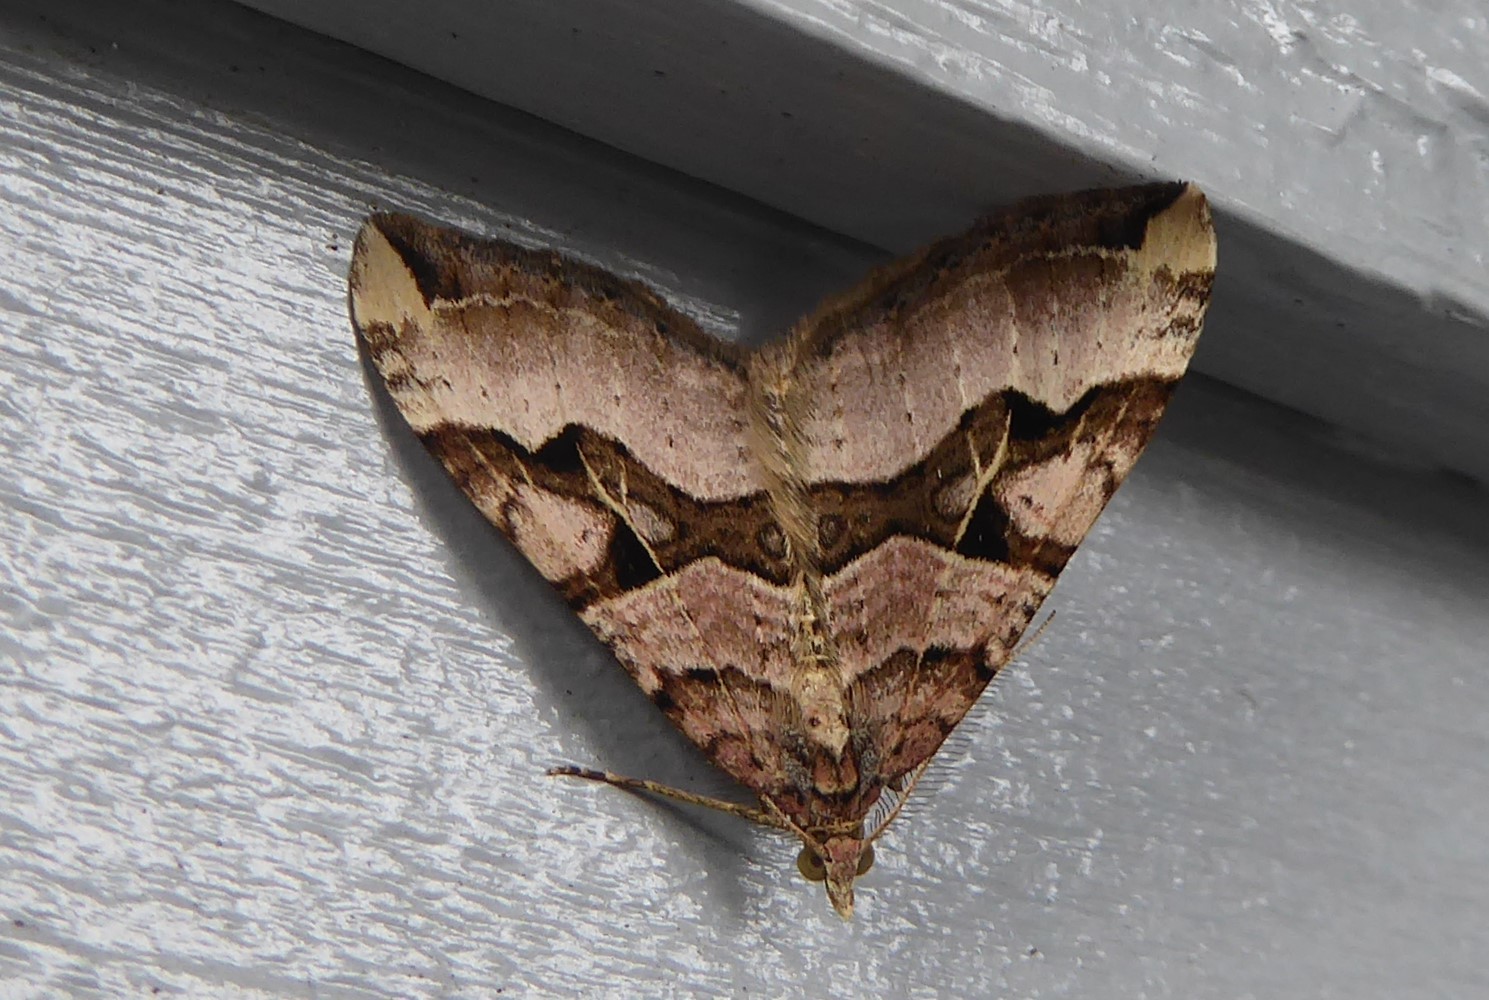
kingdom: Animalia
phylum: Arthropoda
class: Insecta
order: Lepidoptera
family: Geometridae
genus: Xanthorhoe
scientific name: Xanthorhoe semifissata
